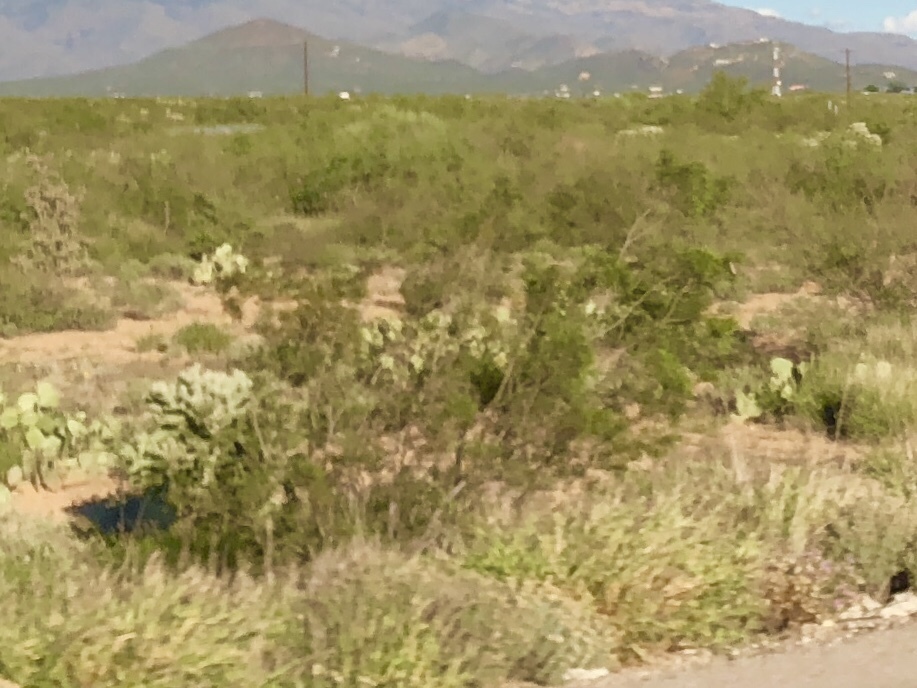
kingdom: Plantae
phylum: Tracheophyta
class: Magnoliopsida
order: Zygophyllales
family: Zygophyllaceae
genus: Larrea
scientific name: Larrea tridentata
